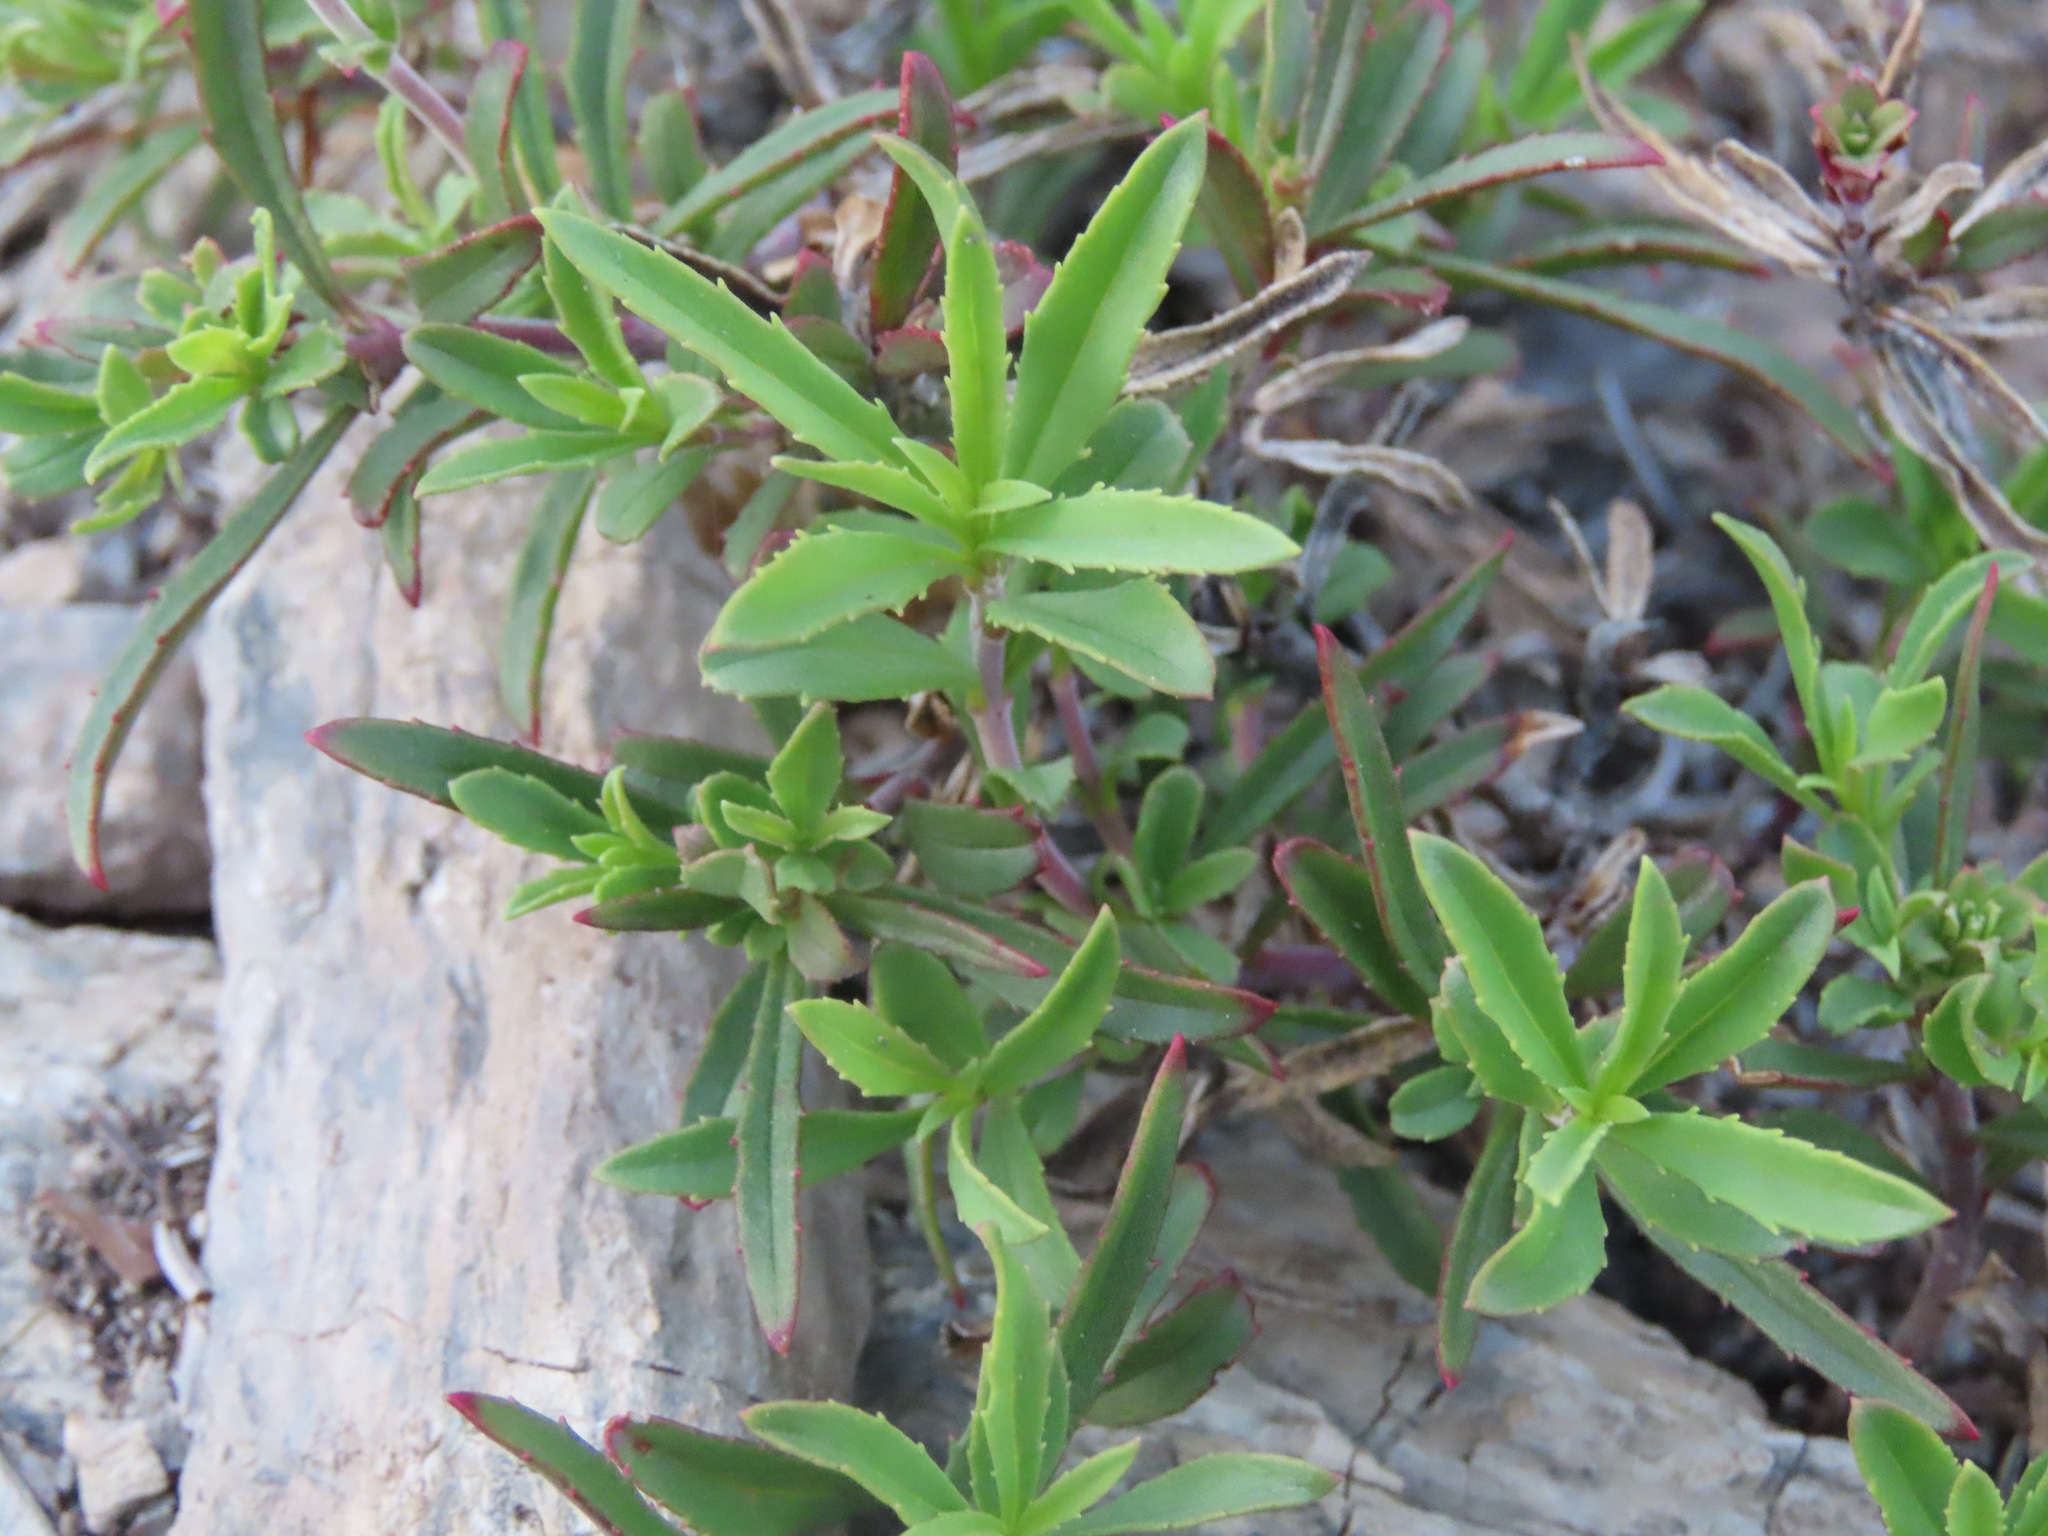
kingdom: Plantae
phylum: Tracheophyta
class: Magnoliopsida
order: Lamiales
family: Plantaginaceae
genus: Penstemon
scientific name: Penstemon fruticosus
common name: Bush penstemon
